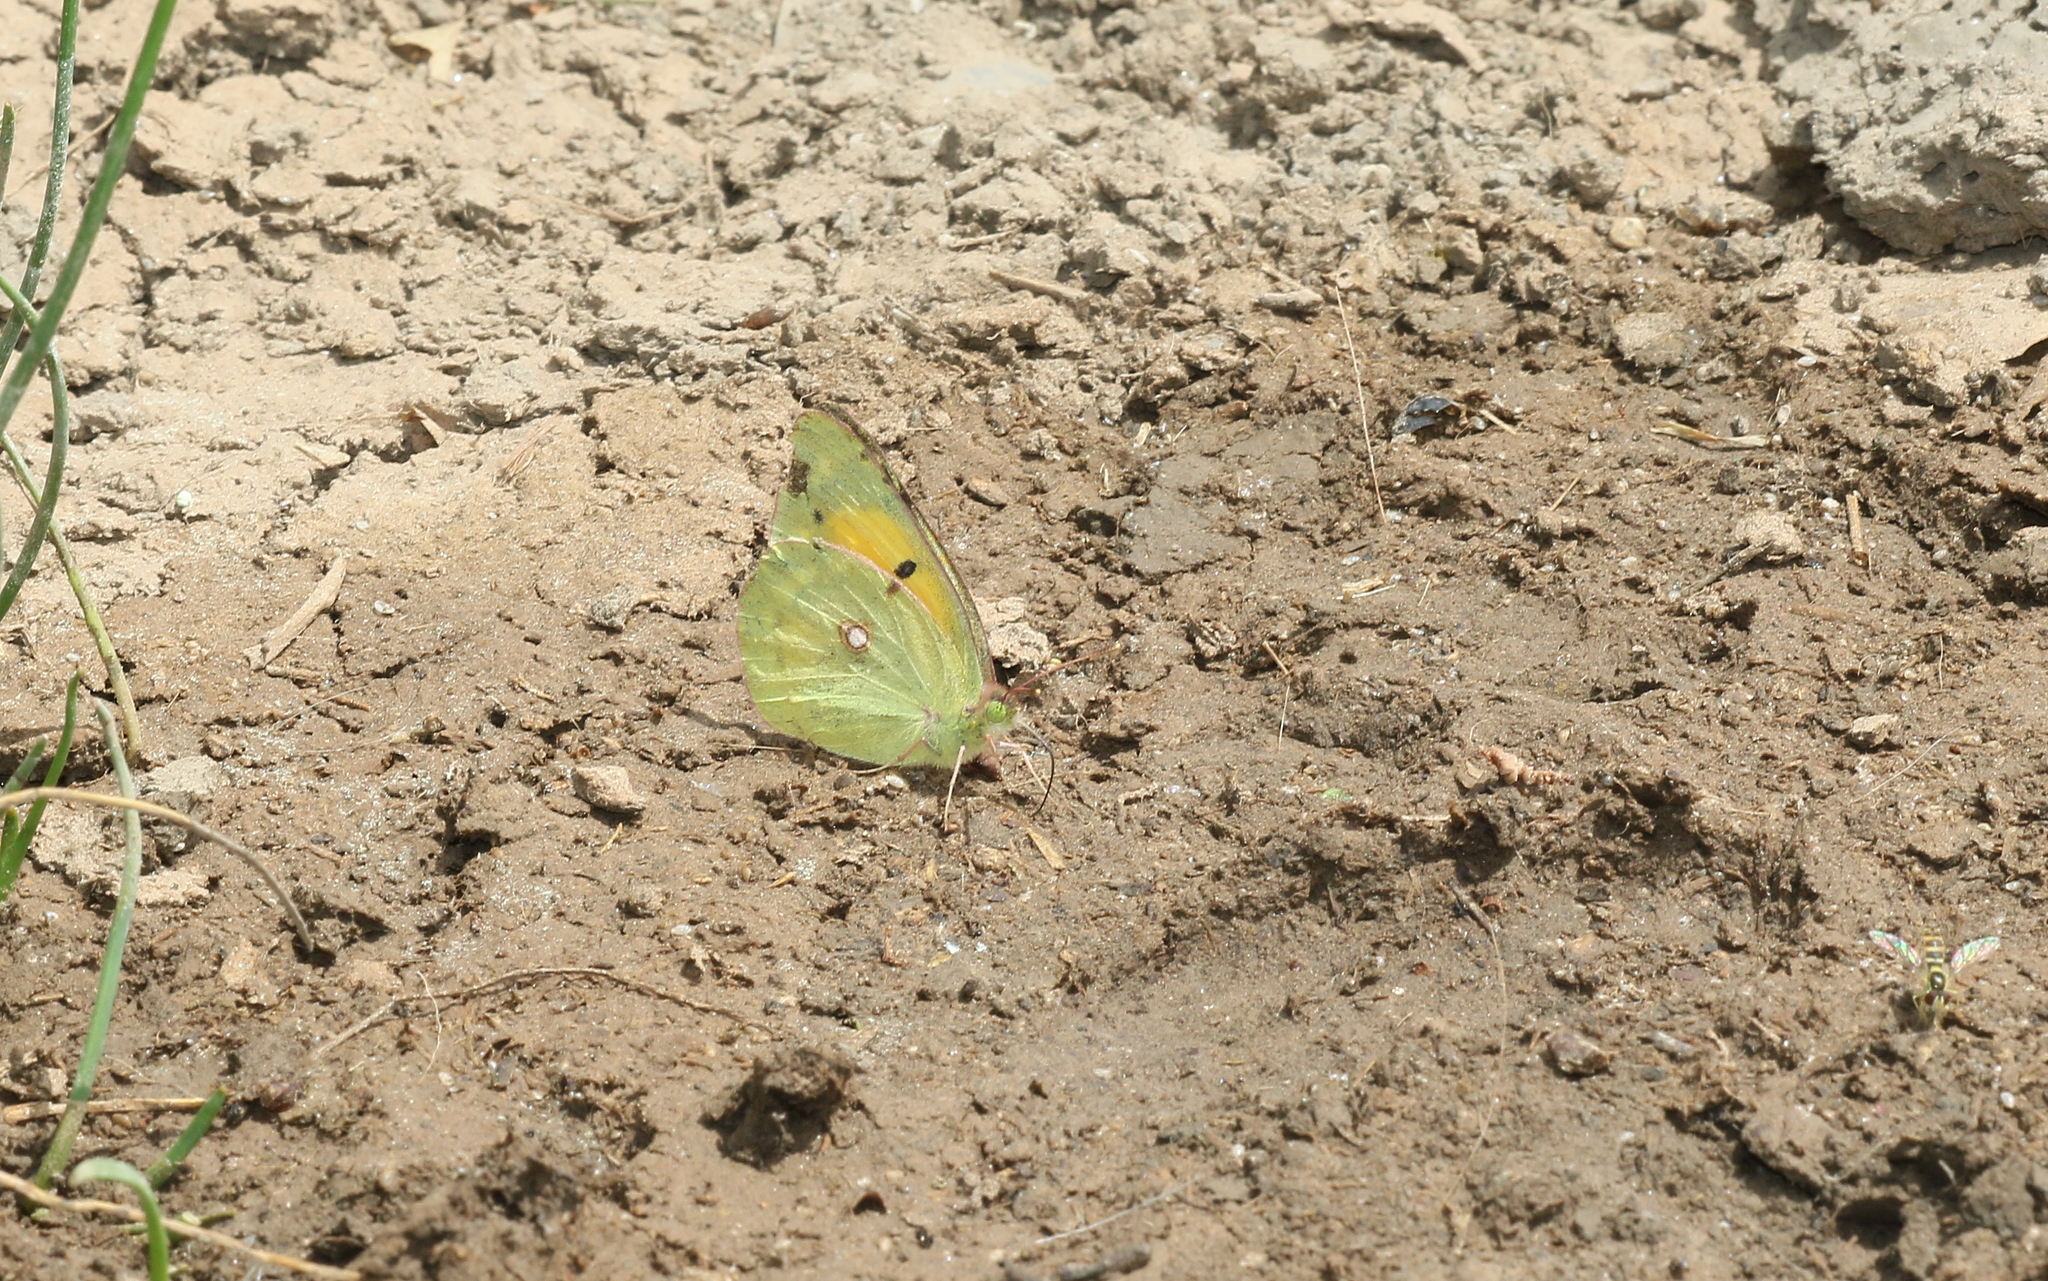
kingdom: Animalia
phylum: Arthropoda
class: Insecta
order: Lepidoptera
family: Pieridae
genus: Colias
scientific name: Colias croceus
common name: Clouded yellow
